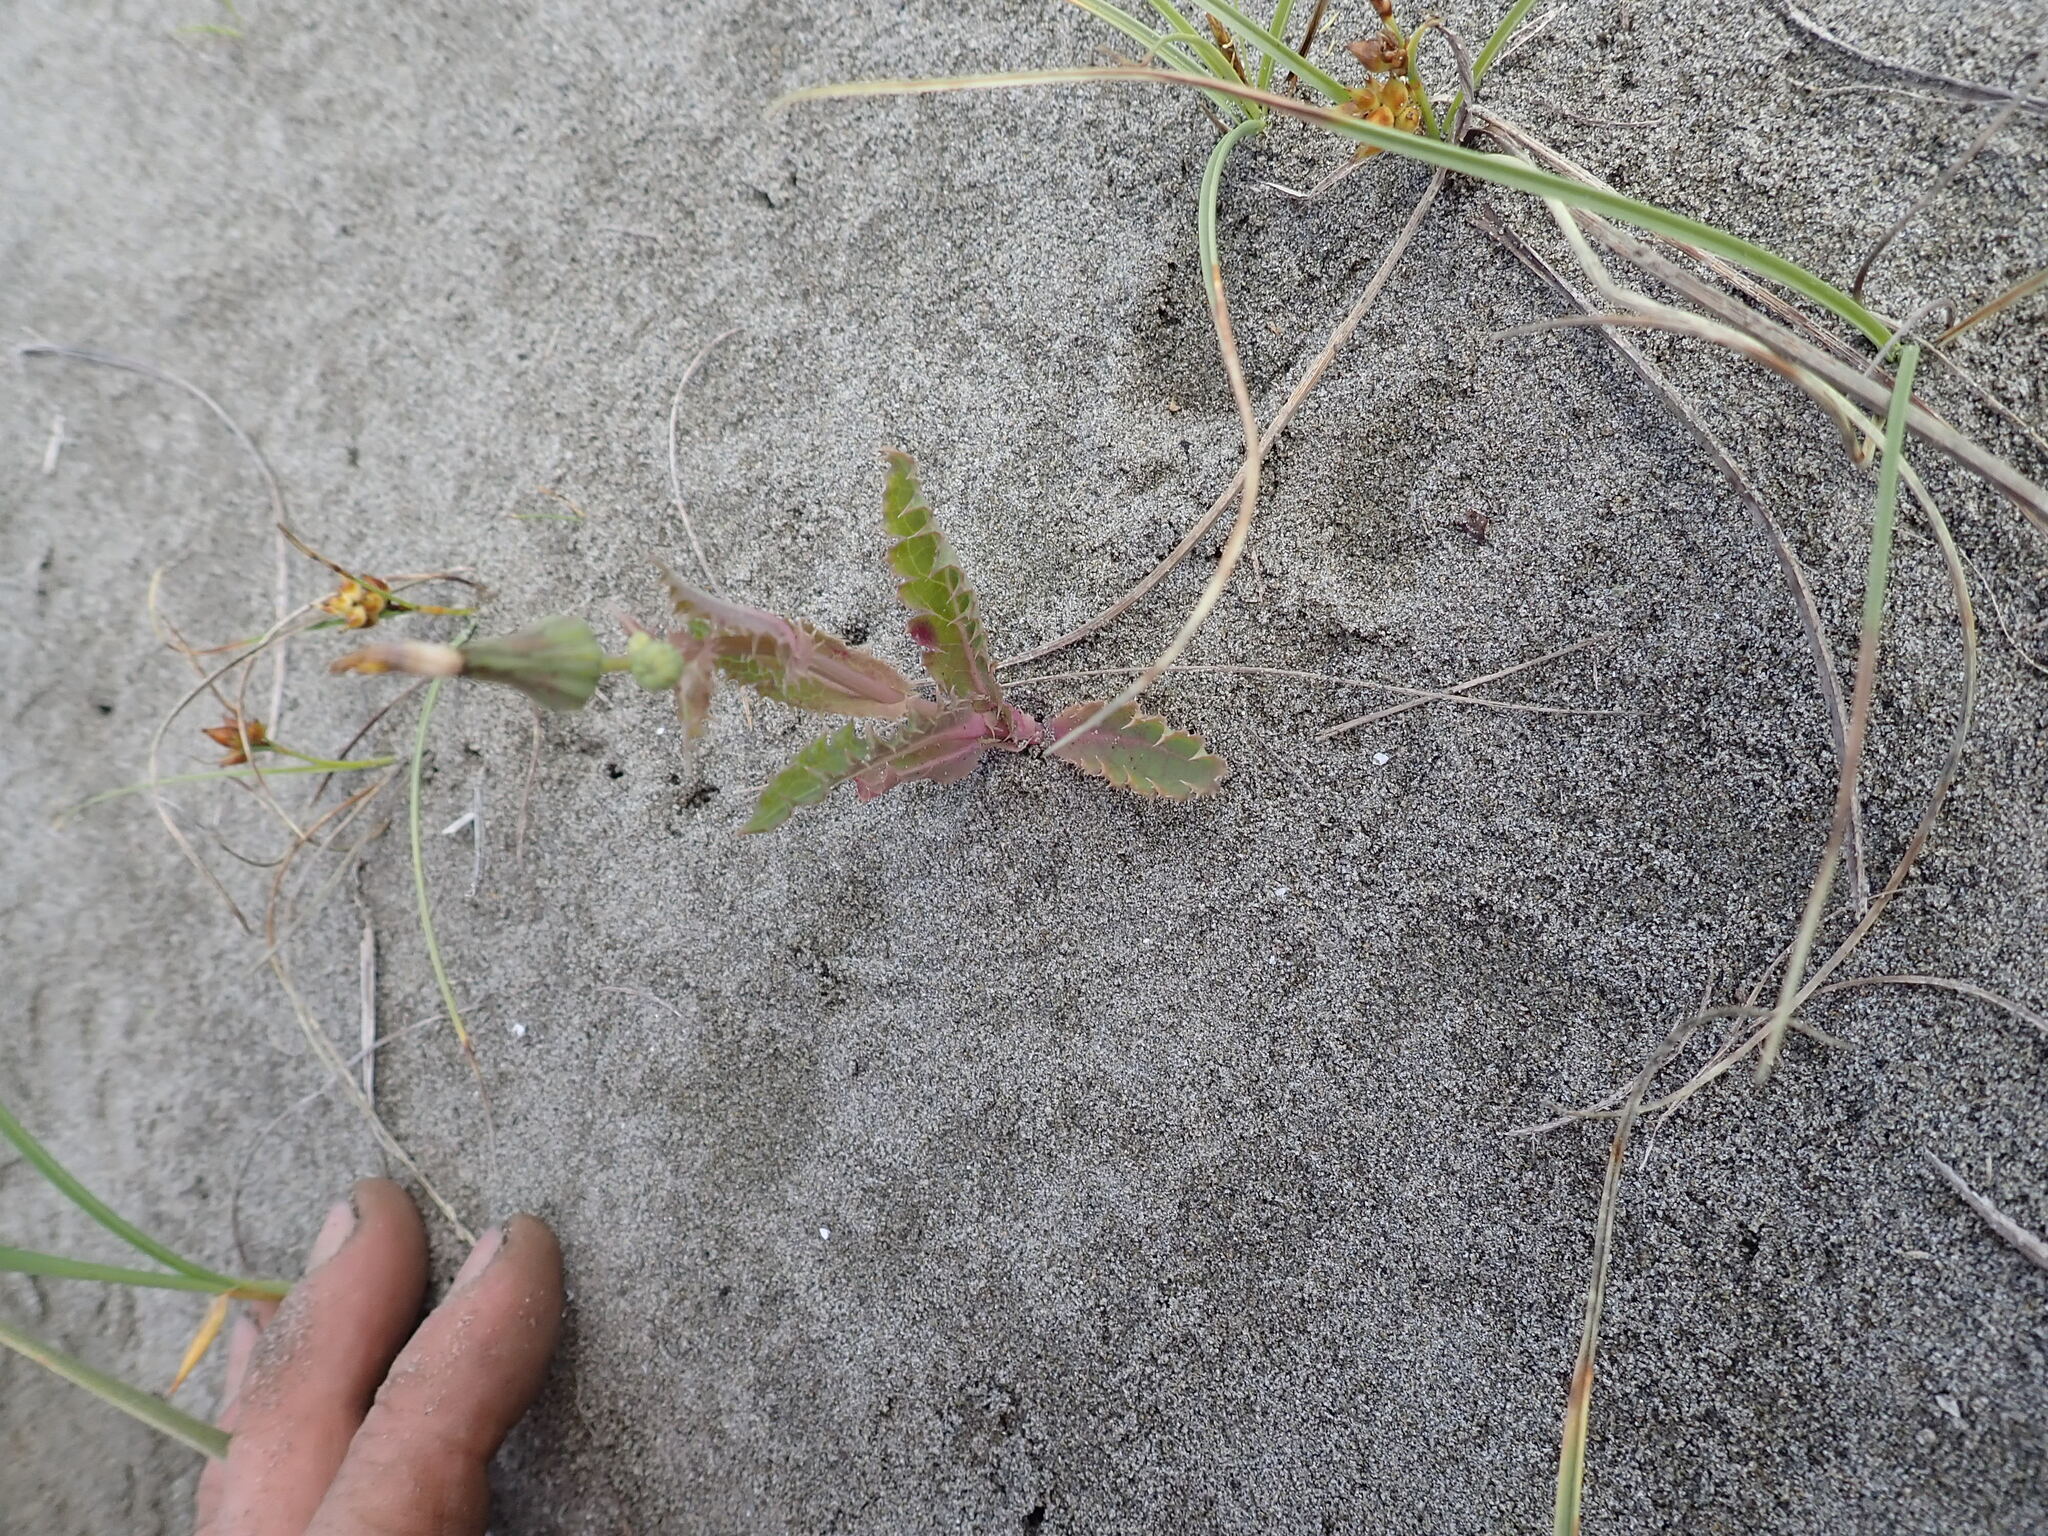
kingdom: Plantae
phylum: Tracheophyta
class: Magnoliopsida
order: Asterales
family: Asteraceae
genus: Sonchus
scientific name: Sonchus asper
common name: Prickly sow-thistle
